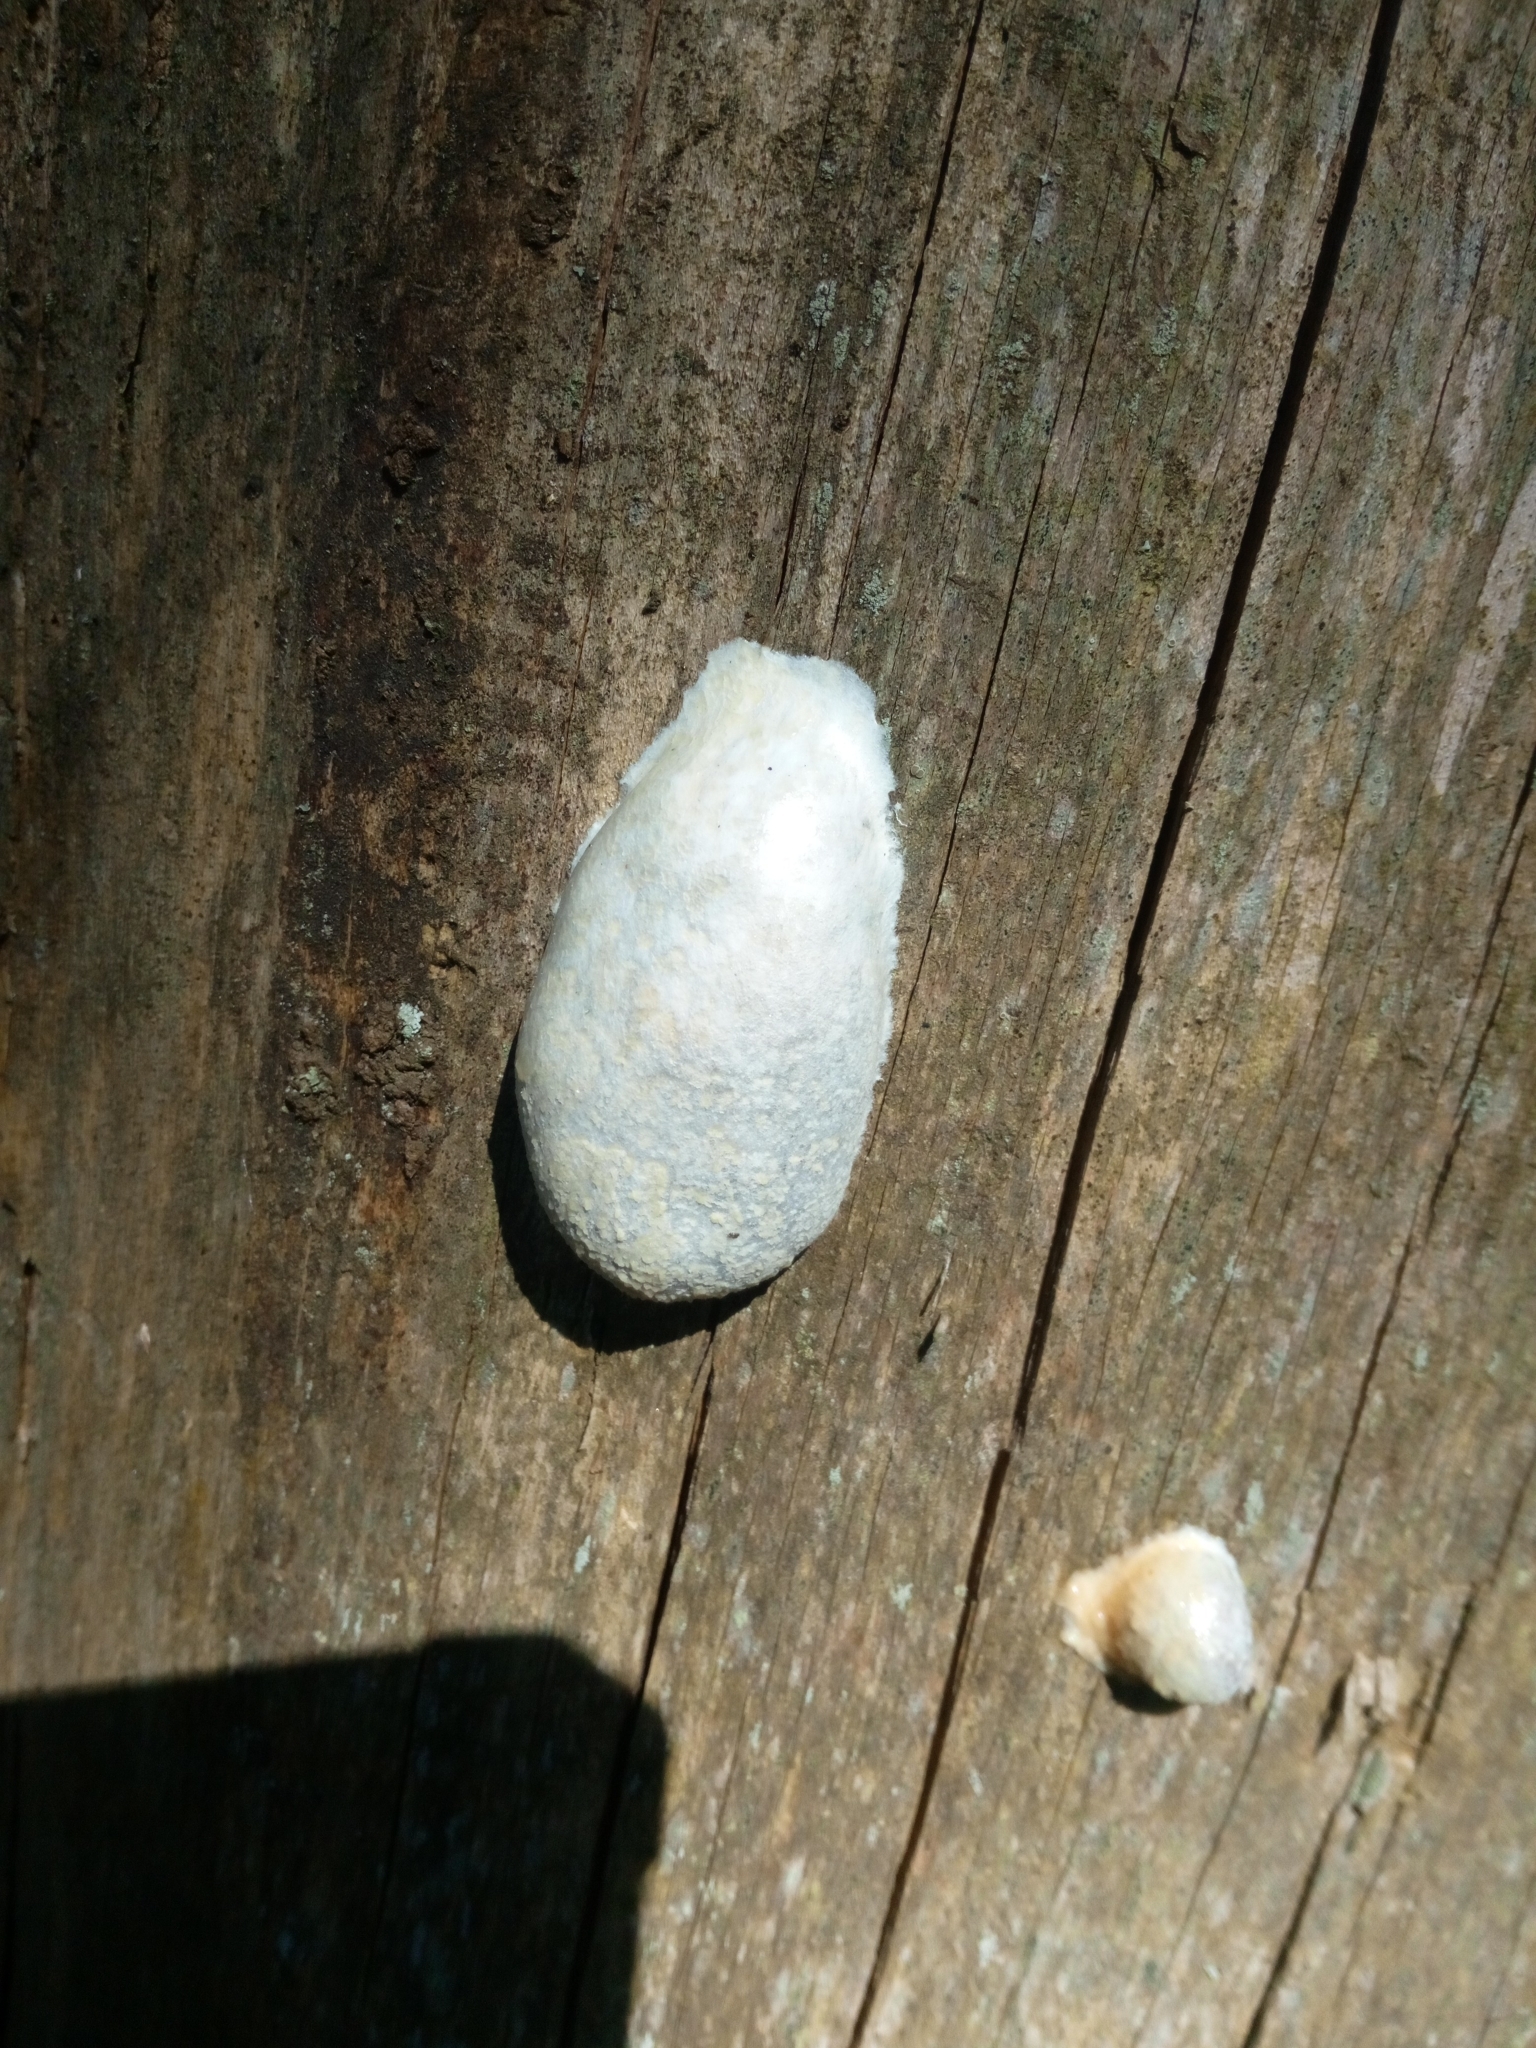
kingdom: Protozoa
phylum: Mycetozoa
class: Myxomycetes
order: Cribrariales
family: Tubiferaceae
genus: Reticularia
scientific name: Reticularia lycoperdon
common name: False puffball
